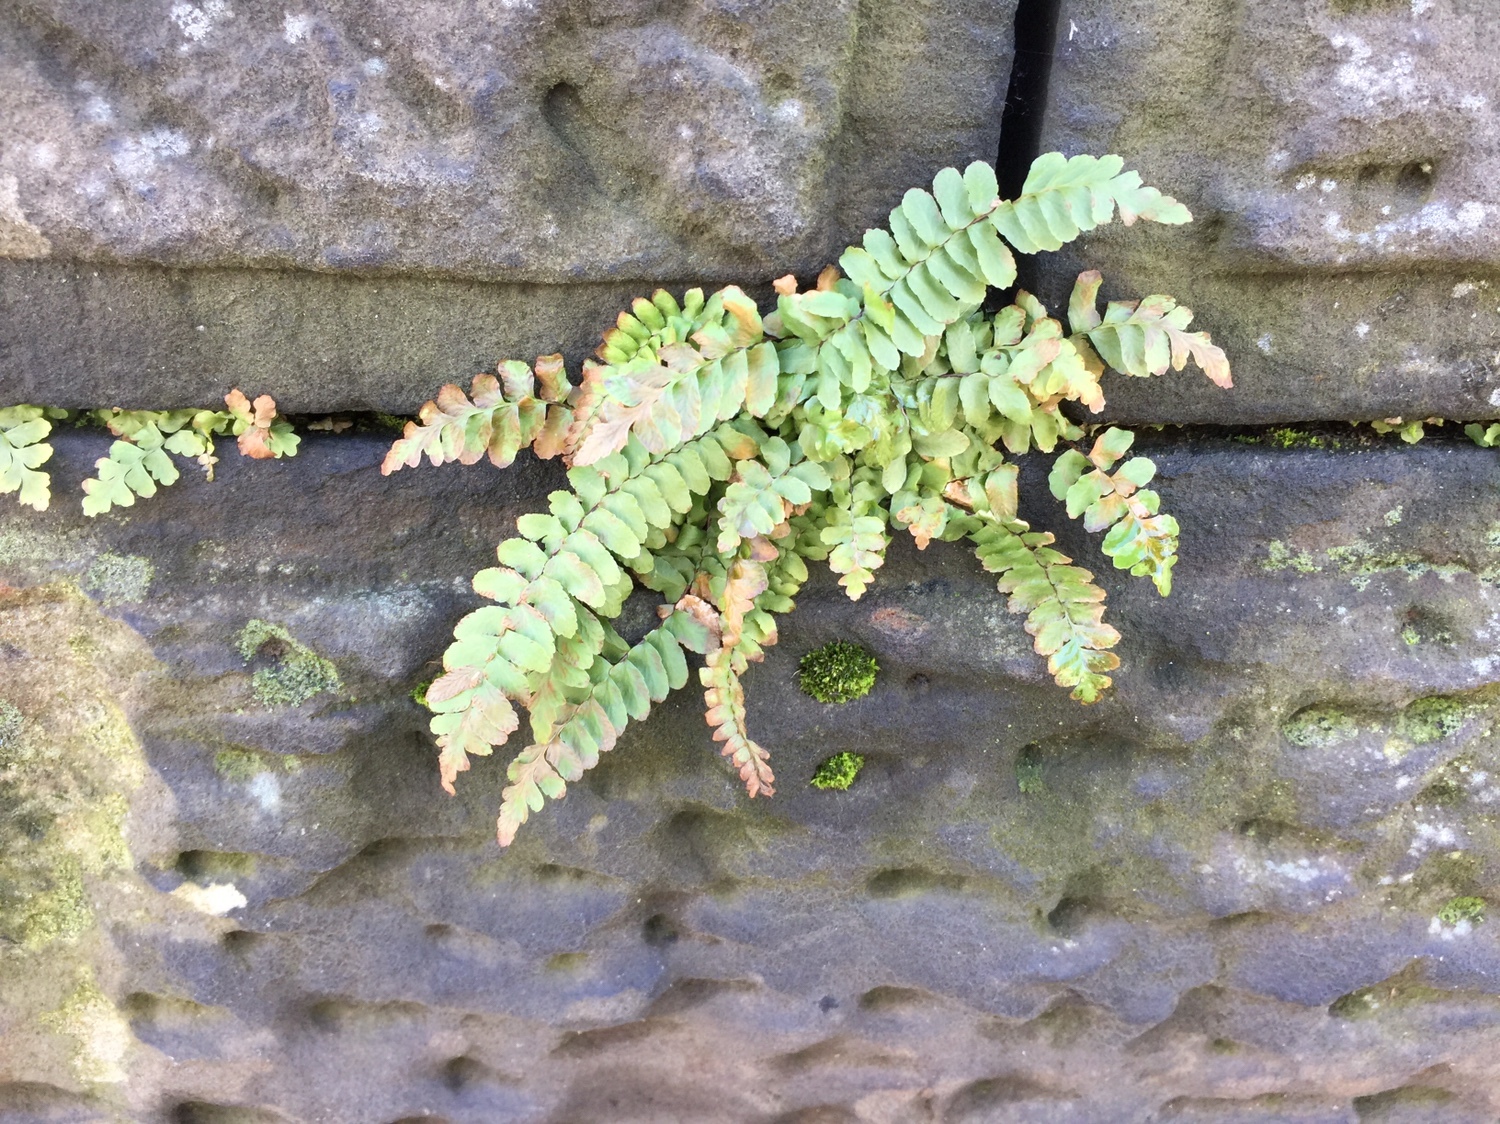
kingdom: Plantae
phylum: Tracheophyta
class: Polypodiopsida
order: Polypodiales
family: Aspleniaceae
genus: Asplenium
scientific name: Asplenium platyneuron
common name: Ebony spleenwort
